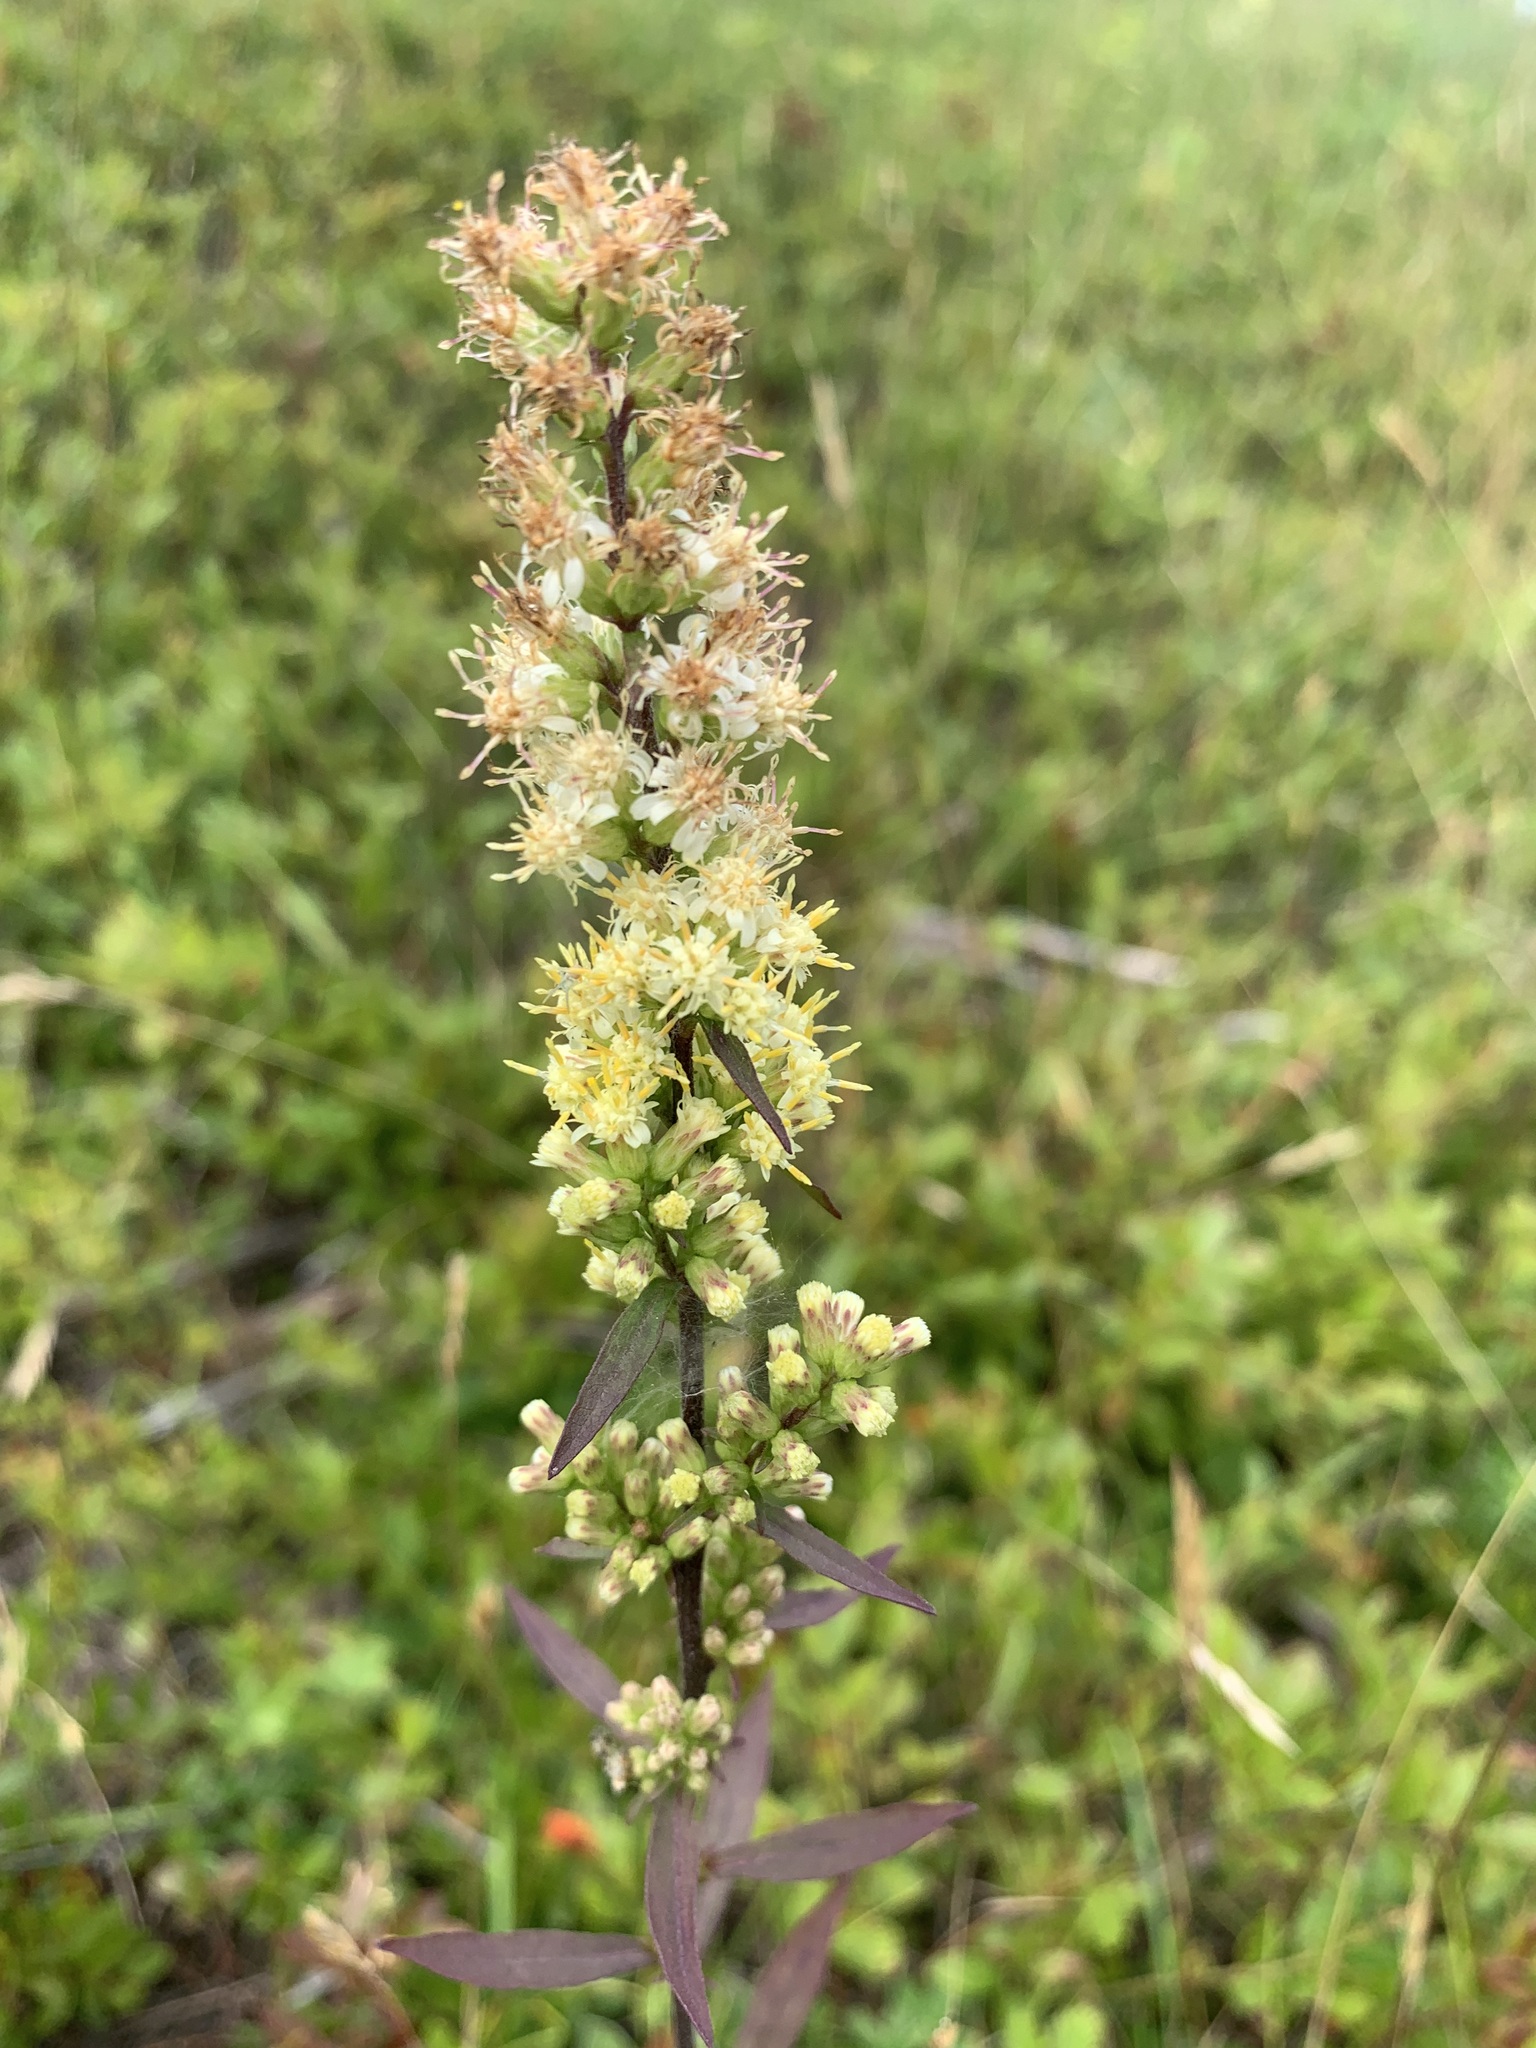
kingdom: Plantae
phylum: Tracheophyta
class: Magnoliopsida
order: Asterales
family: Asteraceae
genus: Solidago
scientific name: Solidago bicolor
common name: Silverrod
